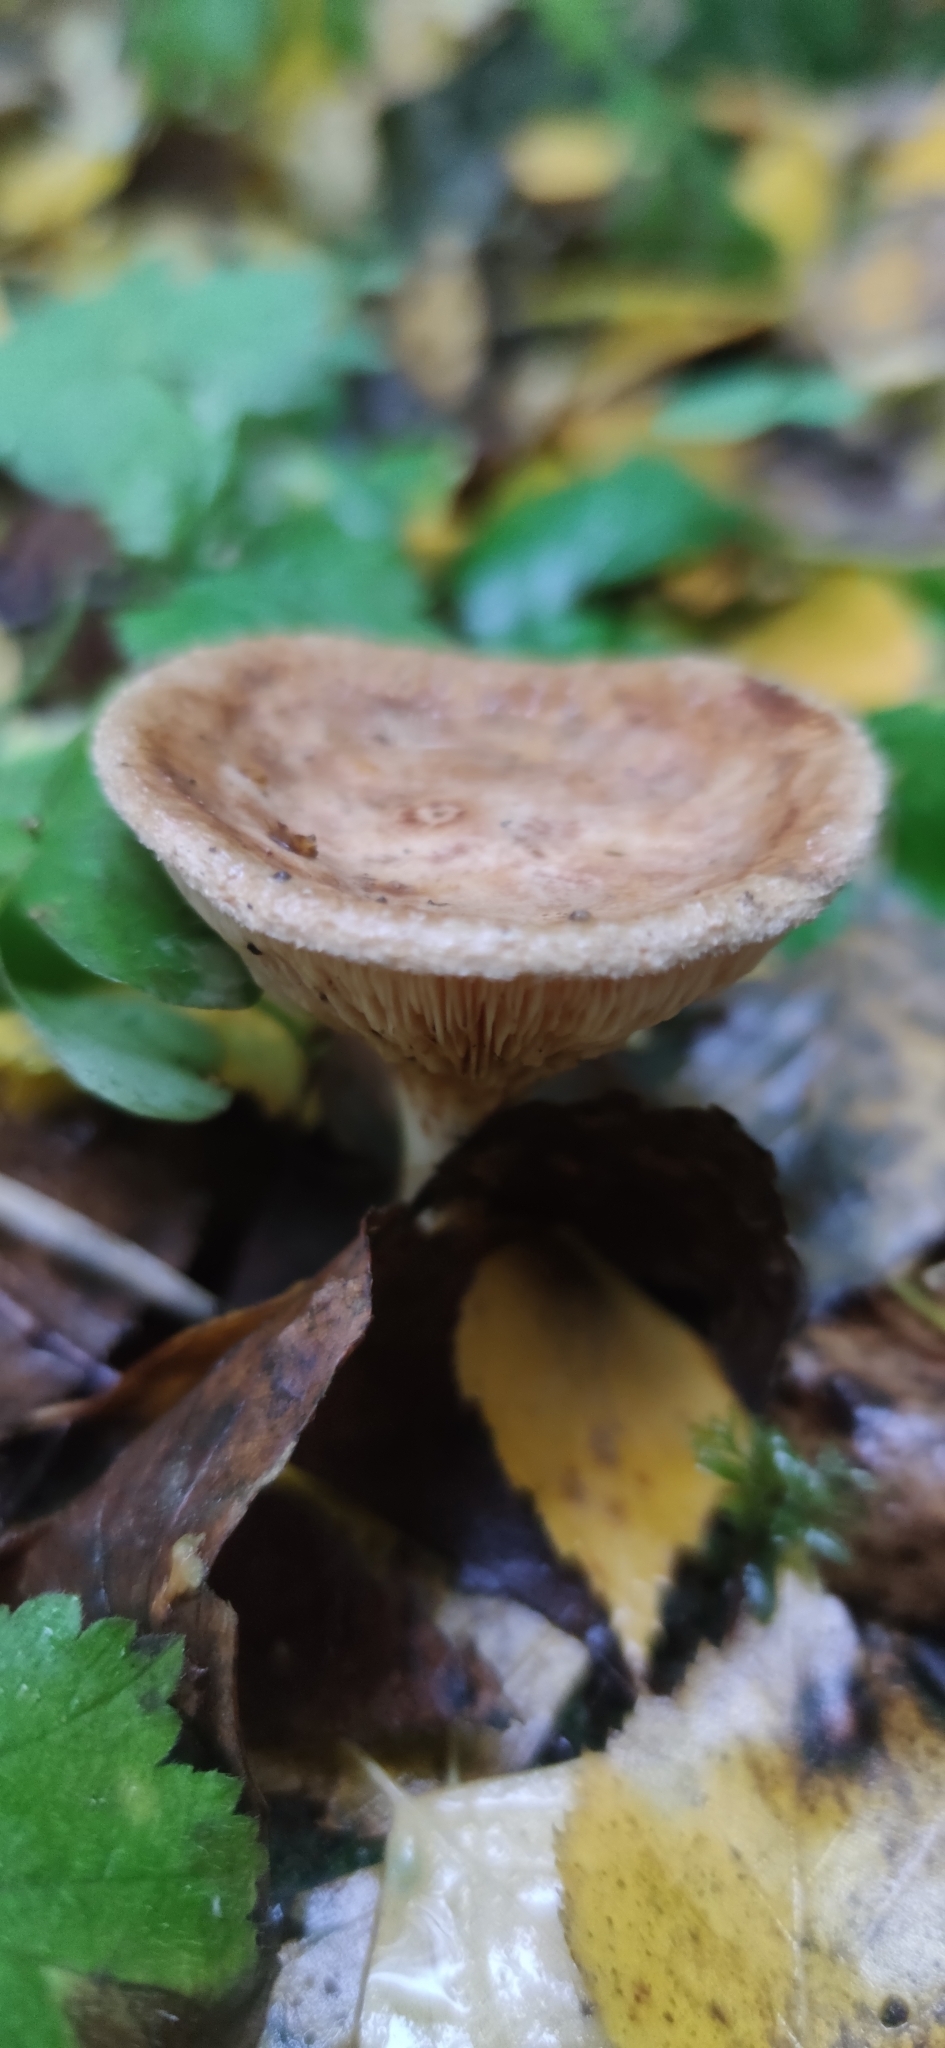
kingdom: Fungi
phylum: Basidiomycota
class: Agaricomycetes
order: Boletales
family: Paxillaceae
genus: Paxillus
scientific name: Paxillus involutus
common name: Brown roll rim
